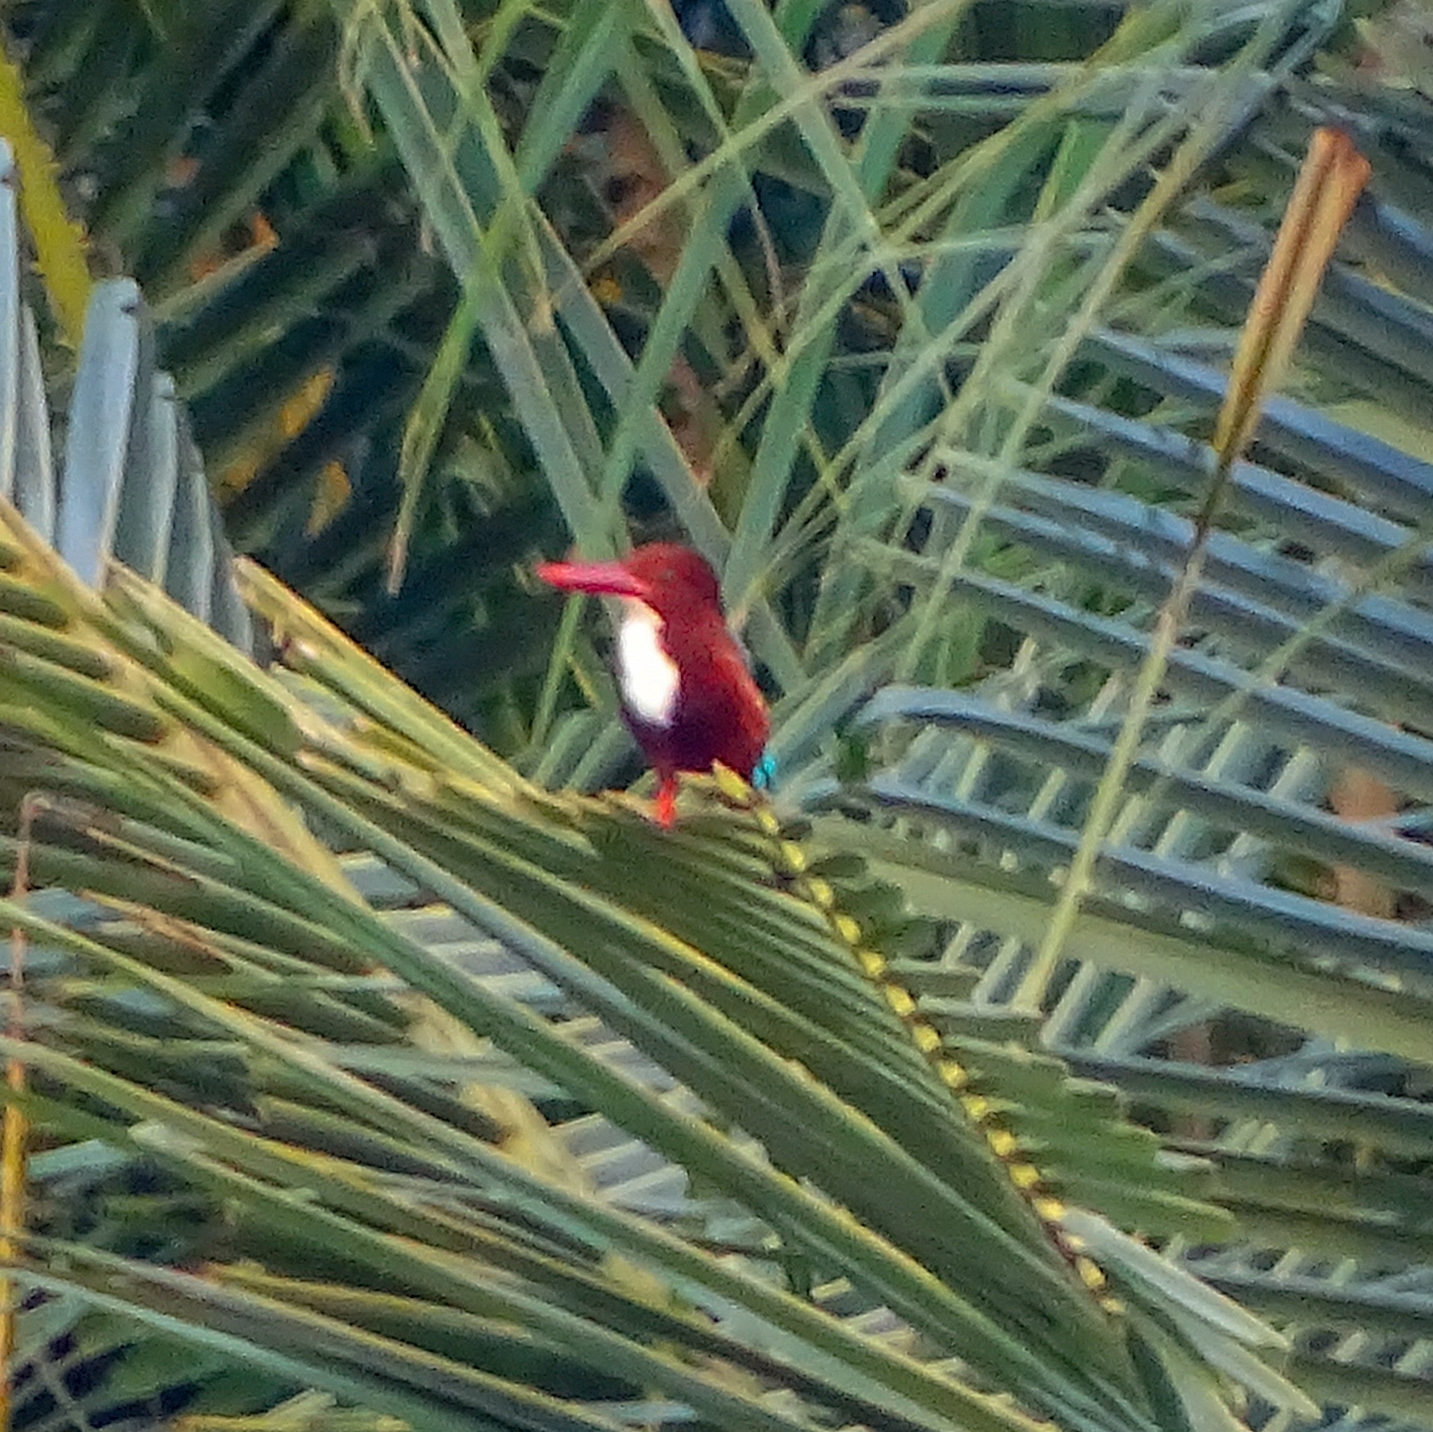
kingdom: Animalia
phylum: Chordata
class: Aves
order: Coraciiformes
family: Alcedinidae
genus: Halcyon
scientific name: Halcyon smyrnensis
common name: White-throated kingfisher
